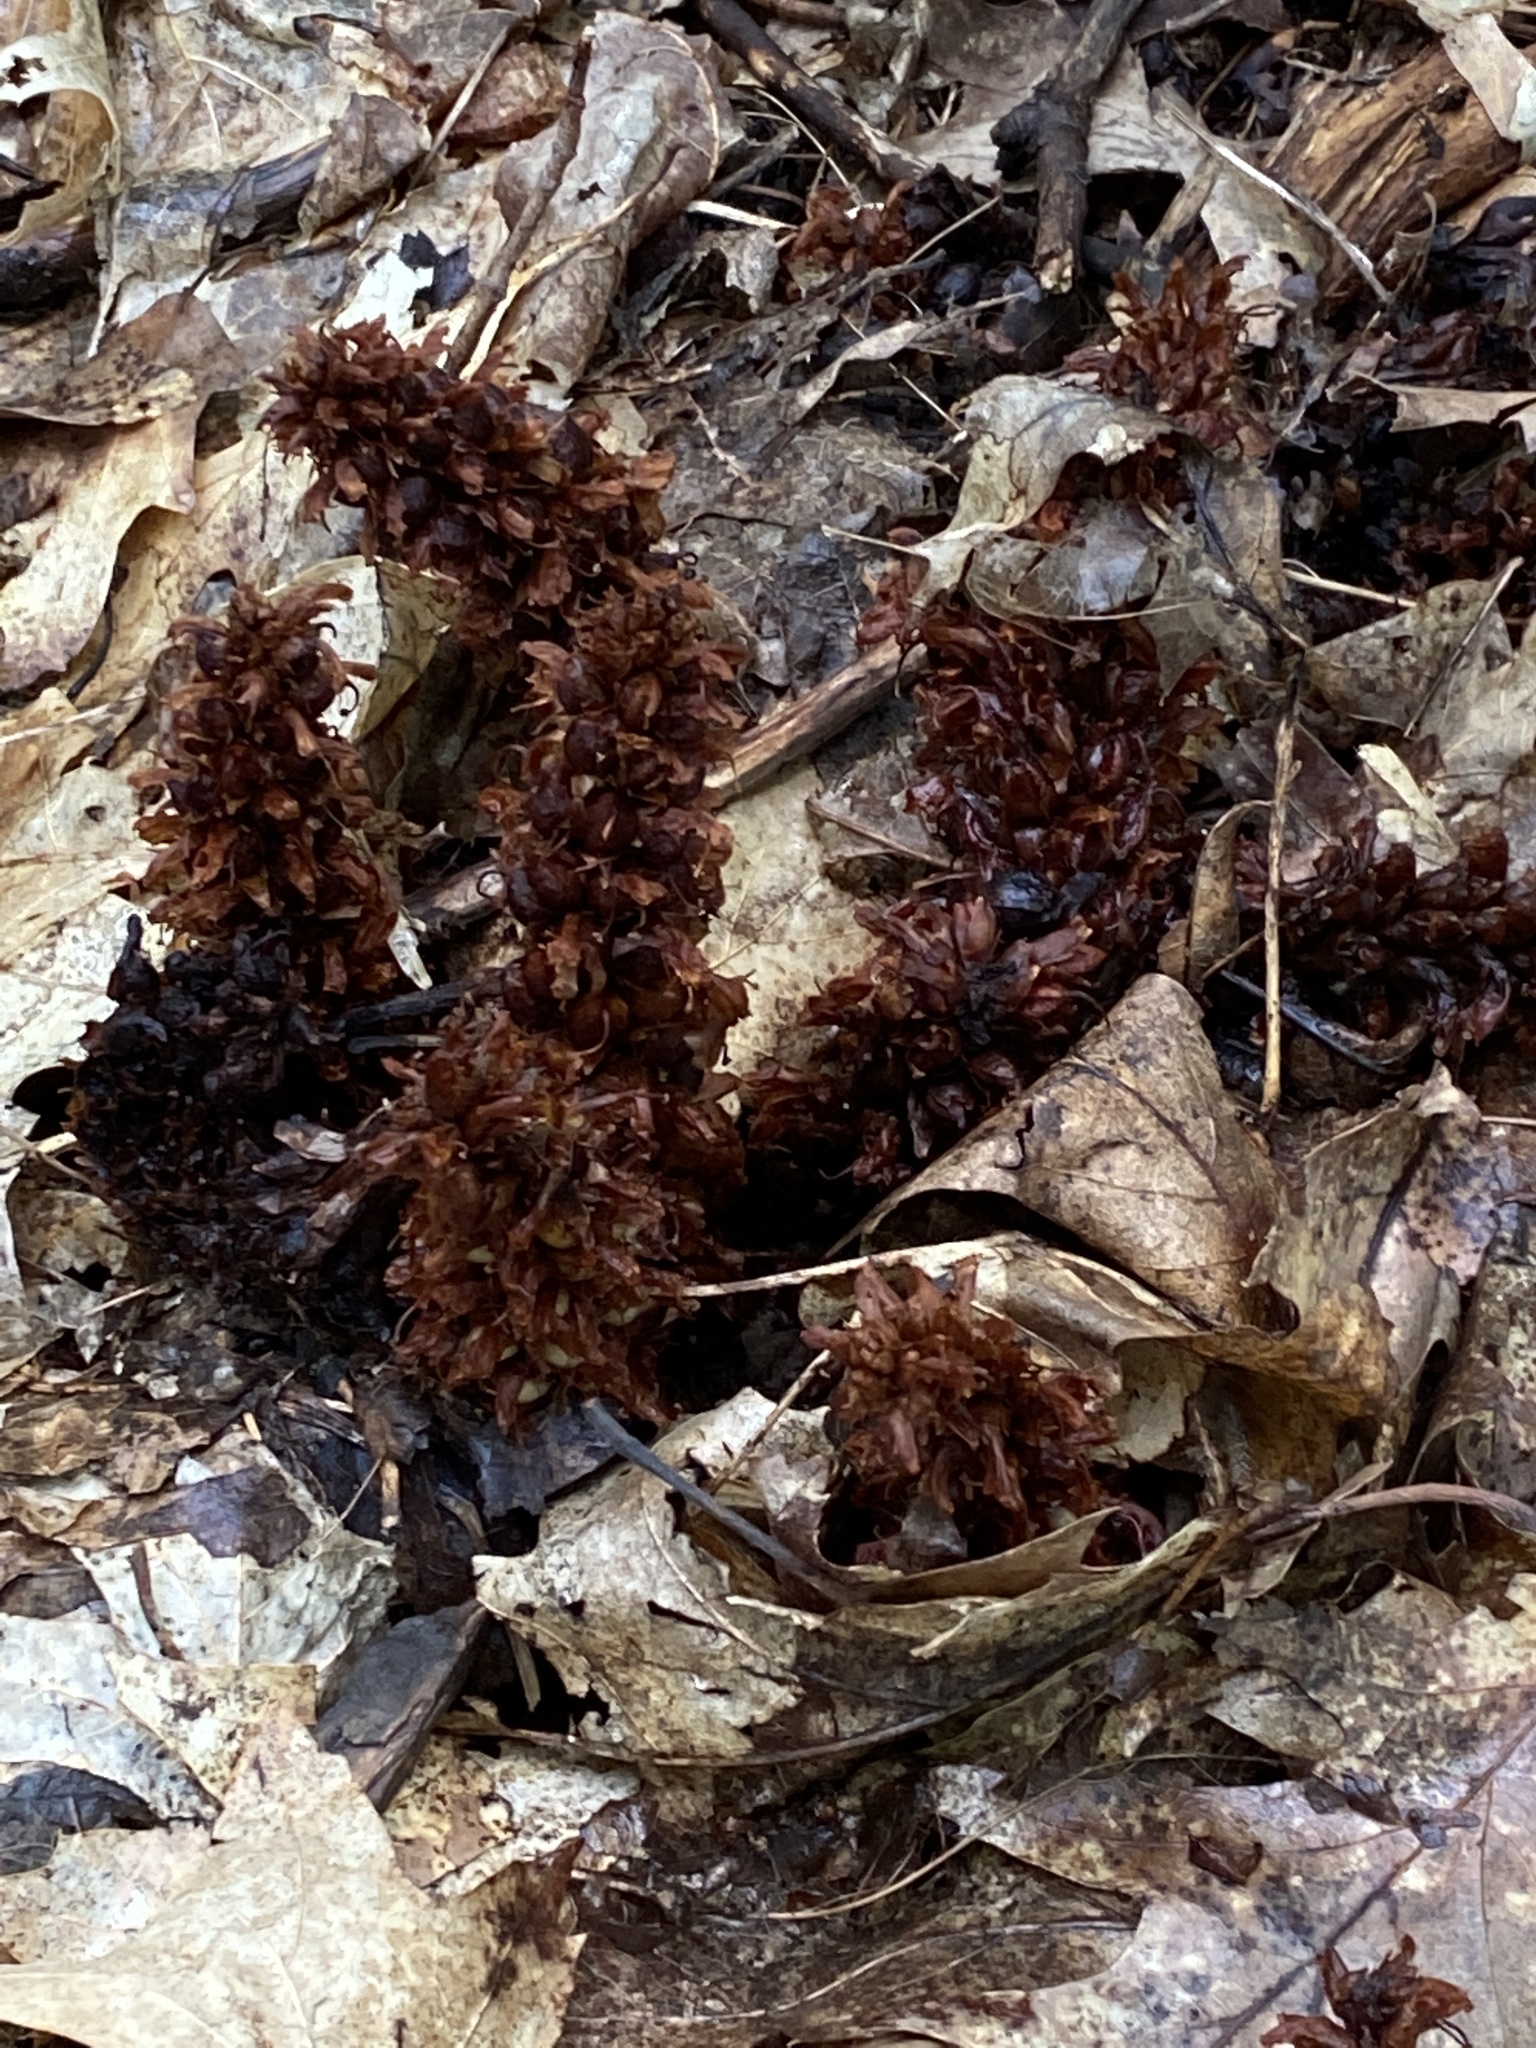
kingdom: Plantae
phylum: Tracheophyta
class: Magnoliopsida
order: Lamiales
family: Orobanchaceae
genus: Conopholis
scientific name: Conopholis americana
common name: American cancer-root
